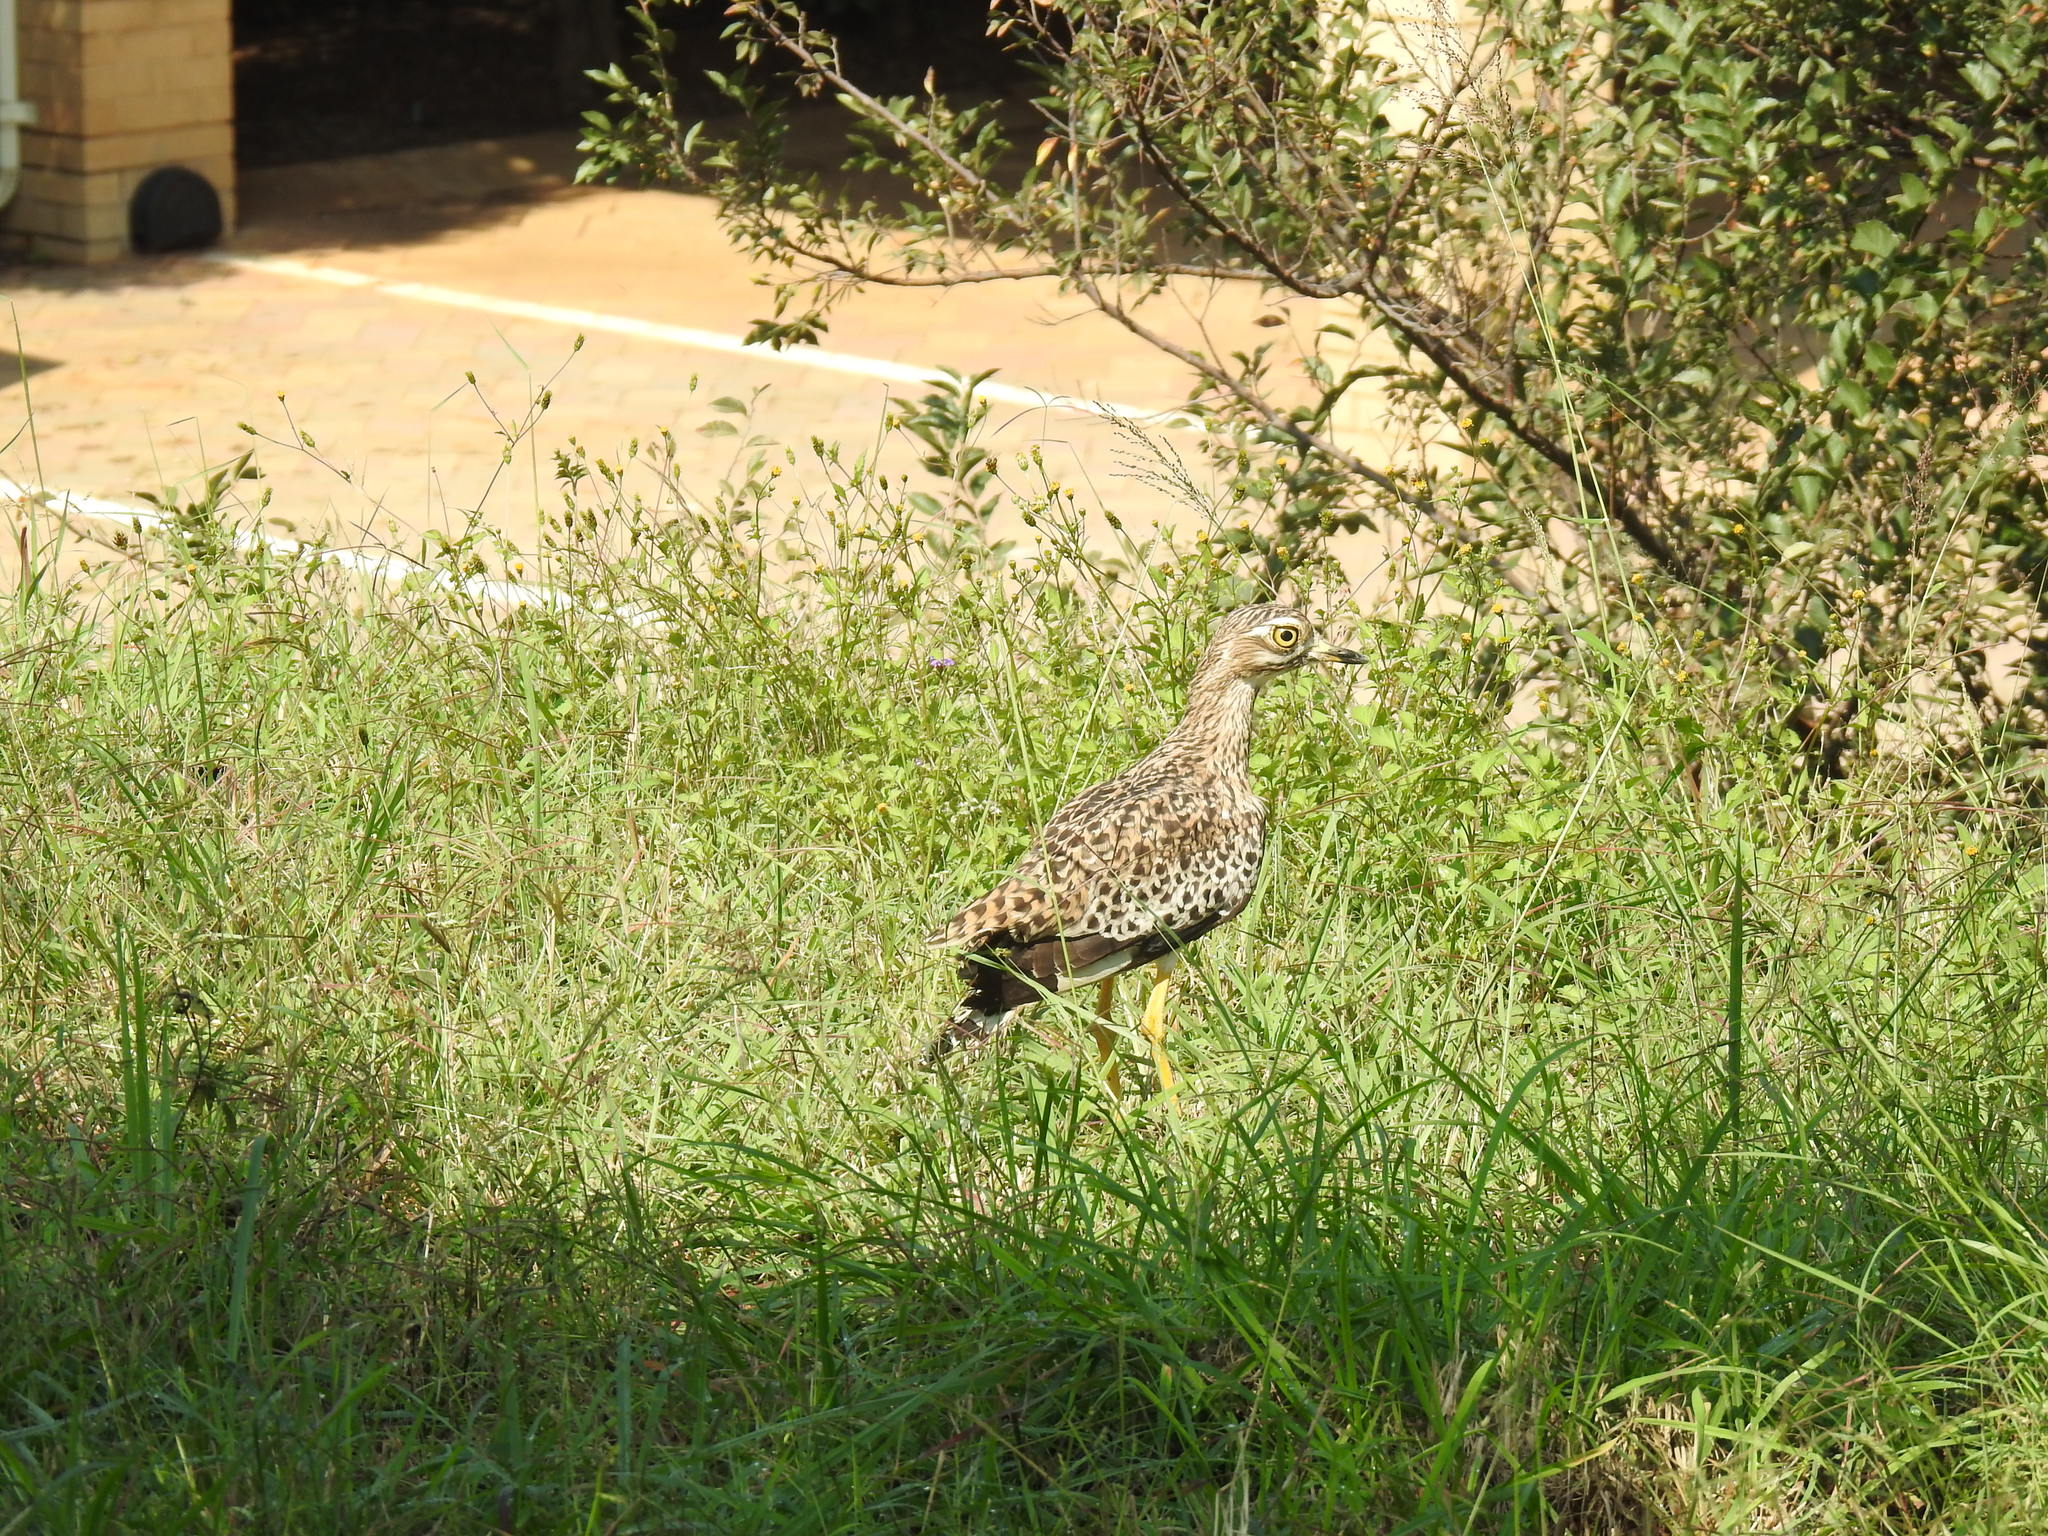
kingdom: Animalia
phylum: Chordata
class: Aves
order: Charadriiformes
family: Burhinidae
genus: Burhinus
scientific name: Burhinus capensis
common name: Spotted thick-knee
